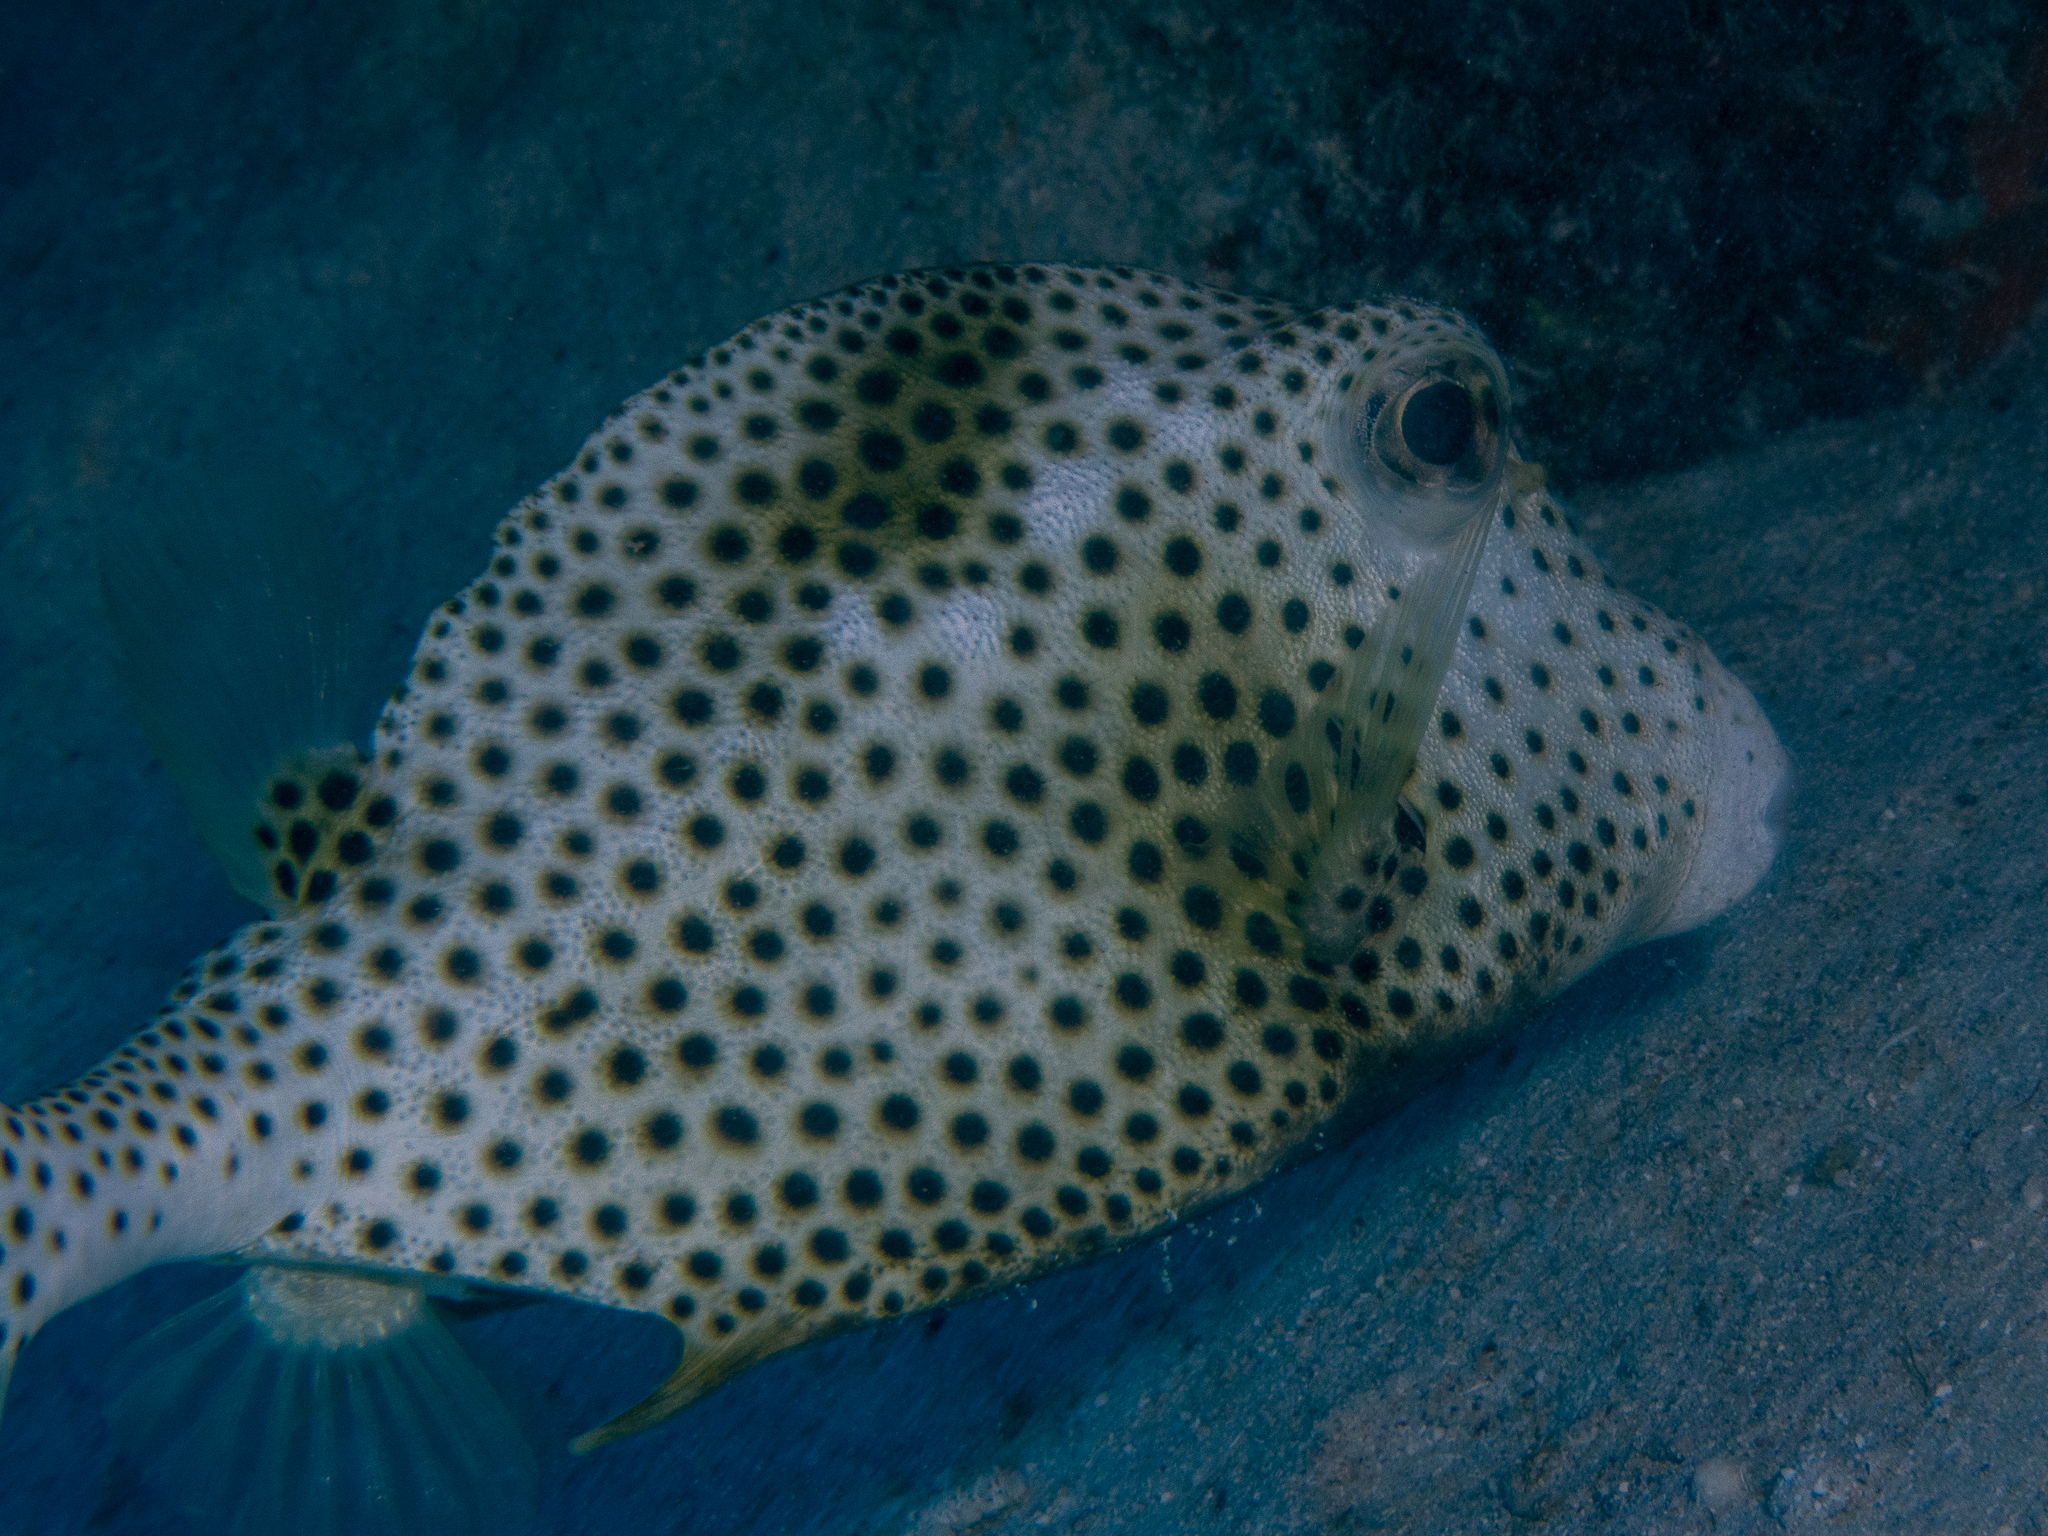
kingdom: Animalia
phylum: Chordata
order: Tetraodontiformes
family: Ostraciidae
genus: Lactophrys
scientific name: Lactophrys bicaudalis
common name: Spotted trunkfish
